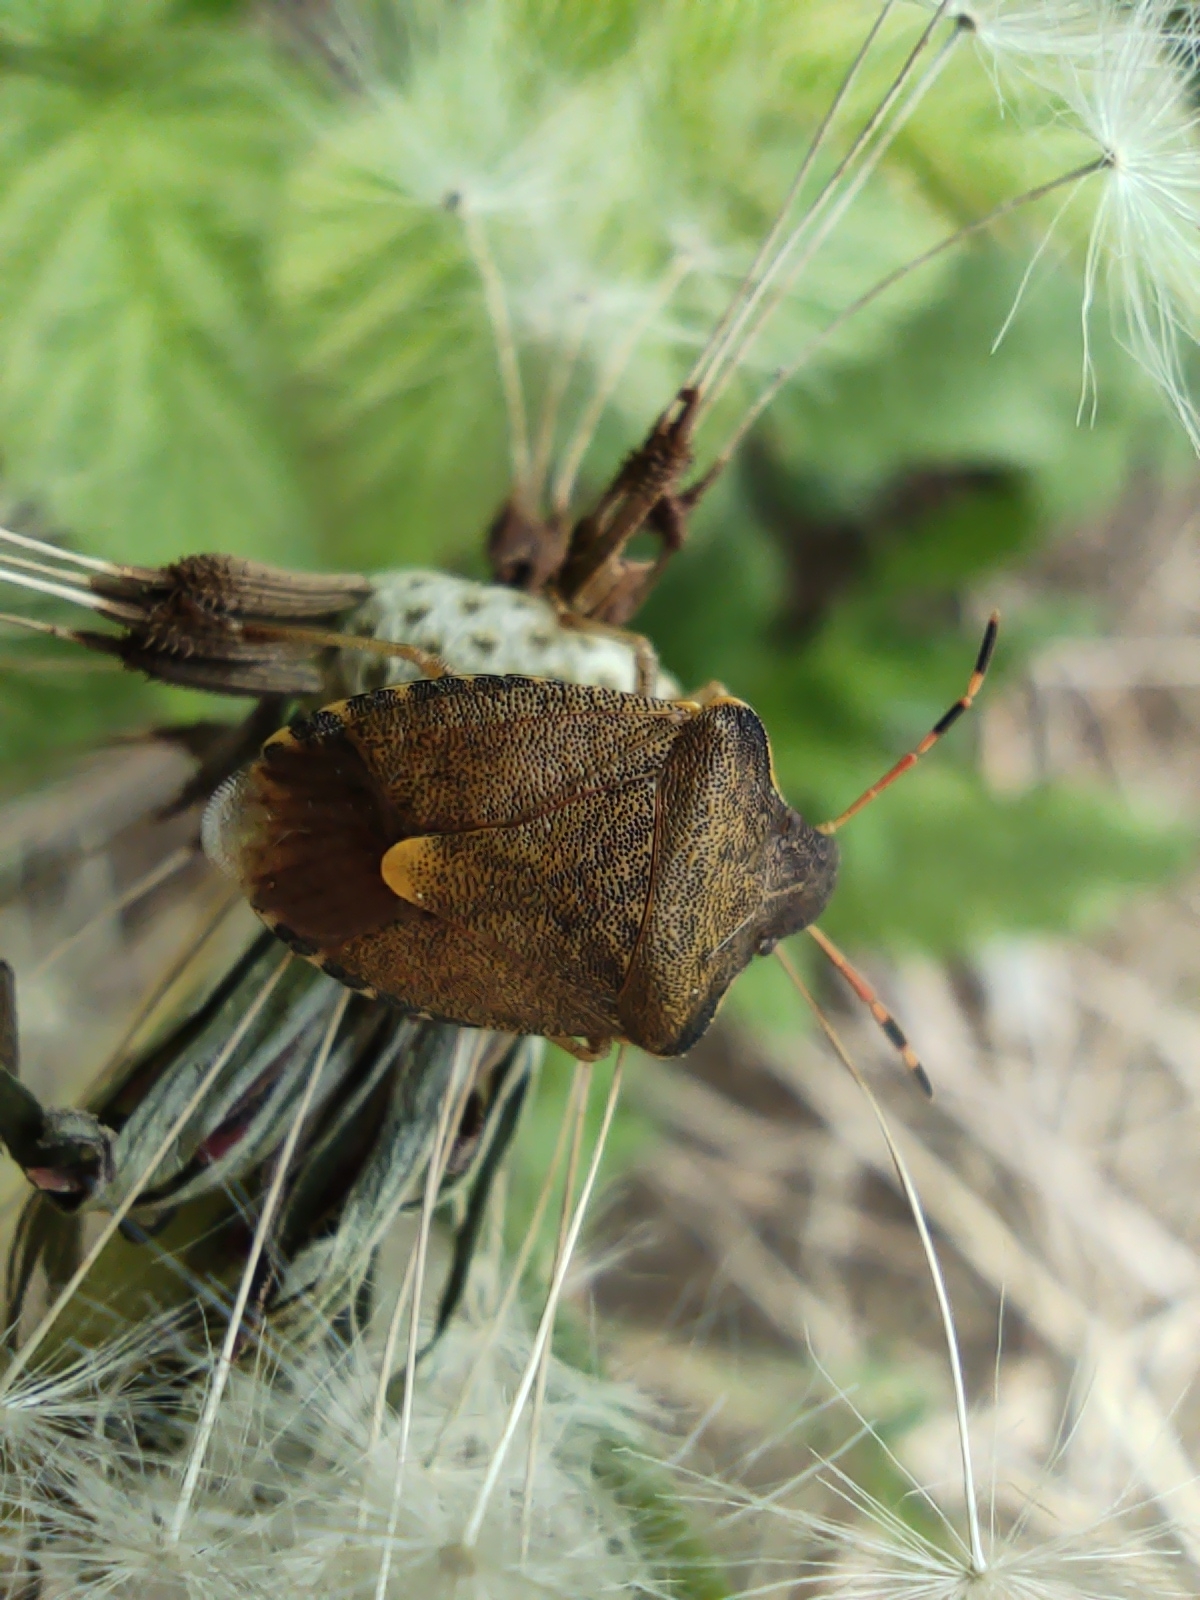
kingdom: Animalia
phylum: Arthropoda
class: Insecta
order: Hemiptera
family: Pentatomidae
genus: Holcostethus
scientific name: Holcostethus strictus
